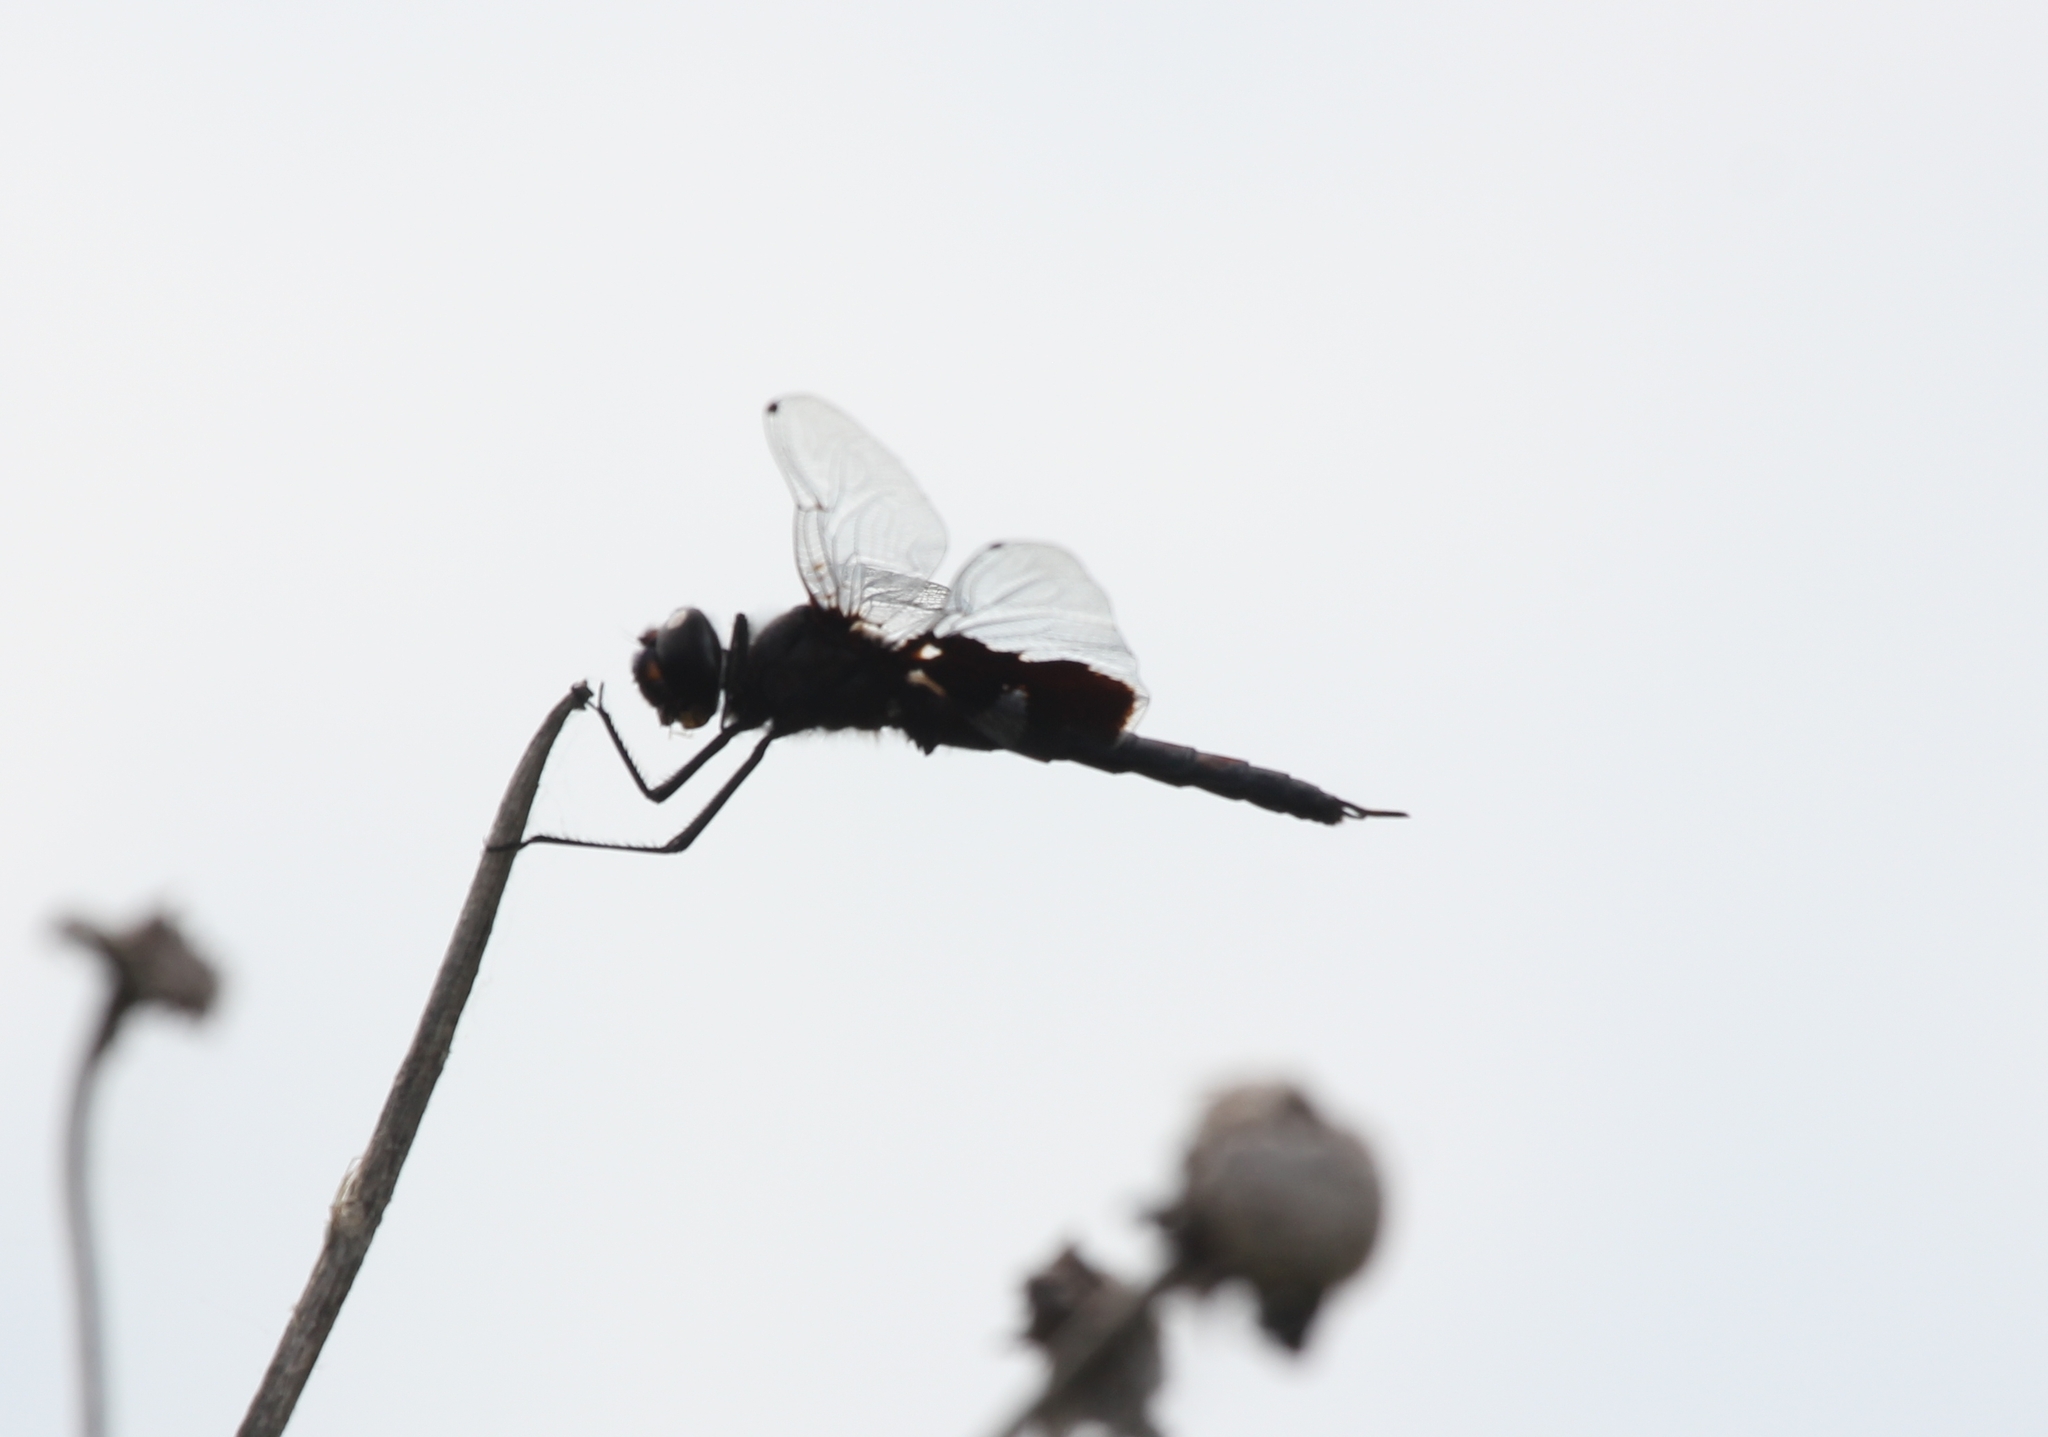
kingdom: Animalia
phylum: Arthropoda
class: Insecta
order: Odonata
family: Libellulidae
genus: Tramea
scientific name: Tramea lacerata
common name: Black saddlebags
